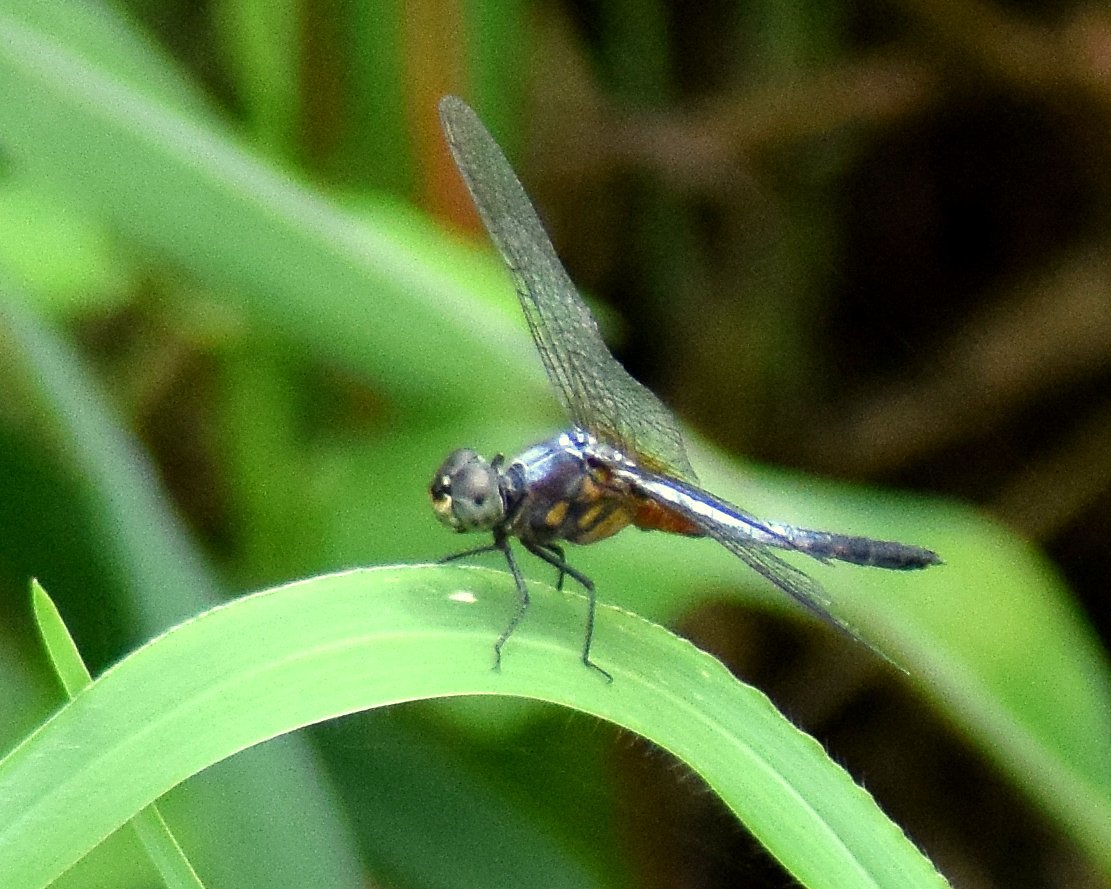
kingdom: Animalia
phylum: Arthropoda
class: Insecta
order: Odonata
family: Libellulidae
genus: Brachydiplax
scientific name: Brachydiplax chalybea
